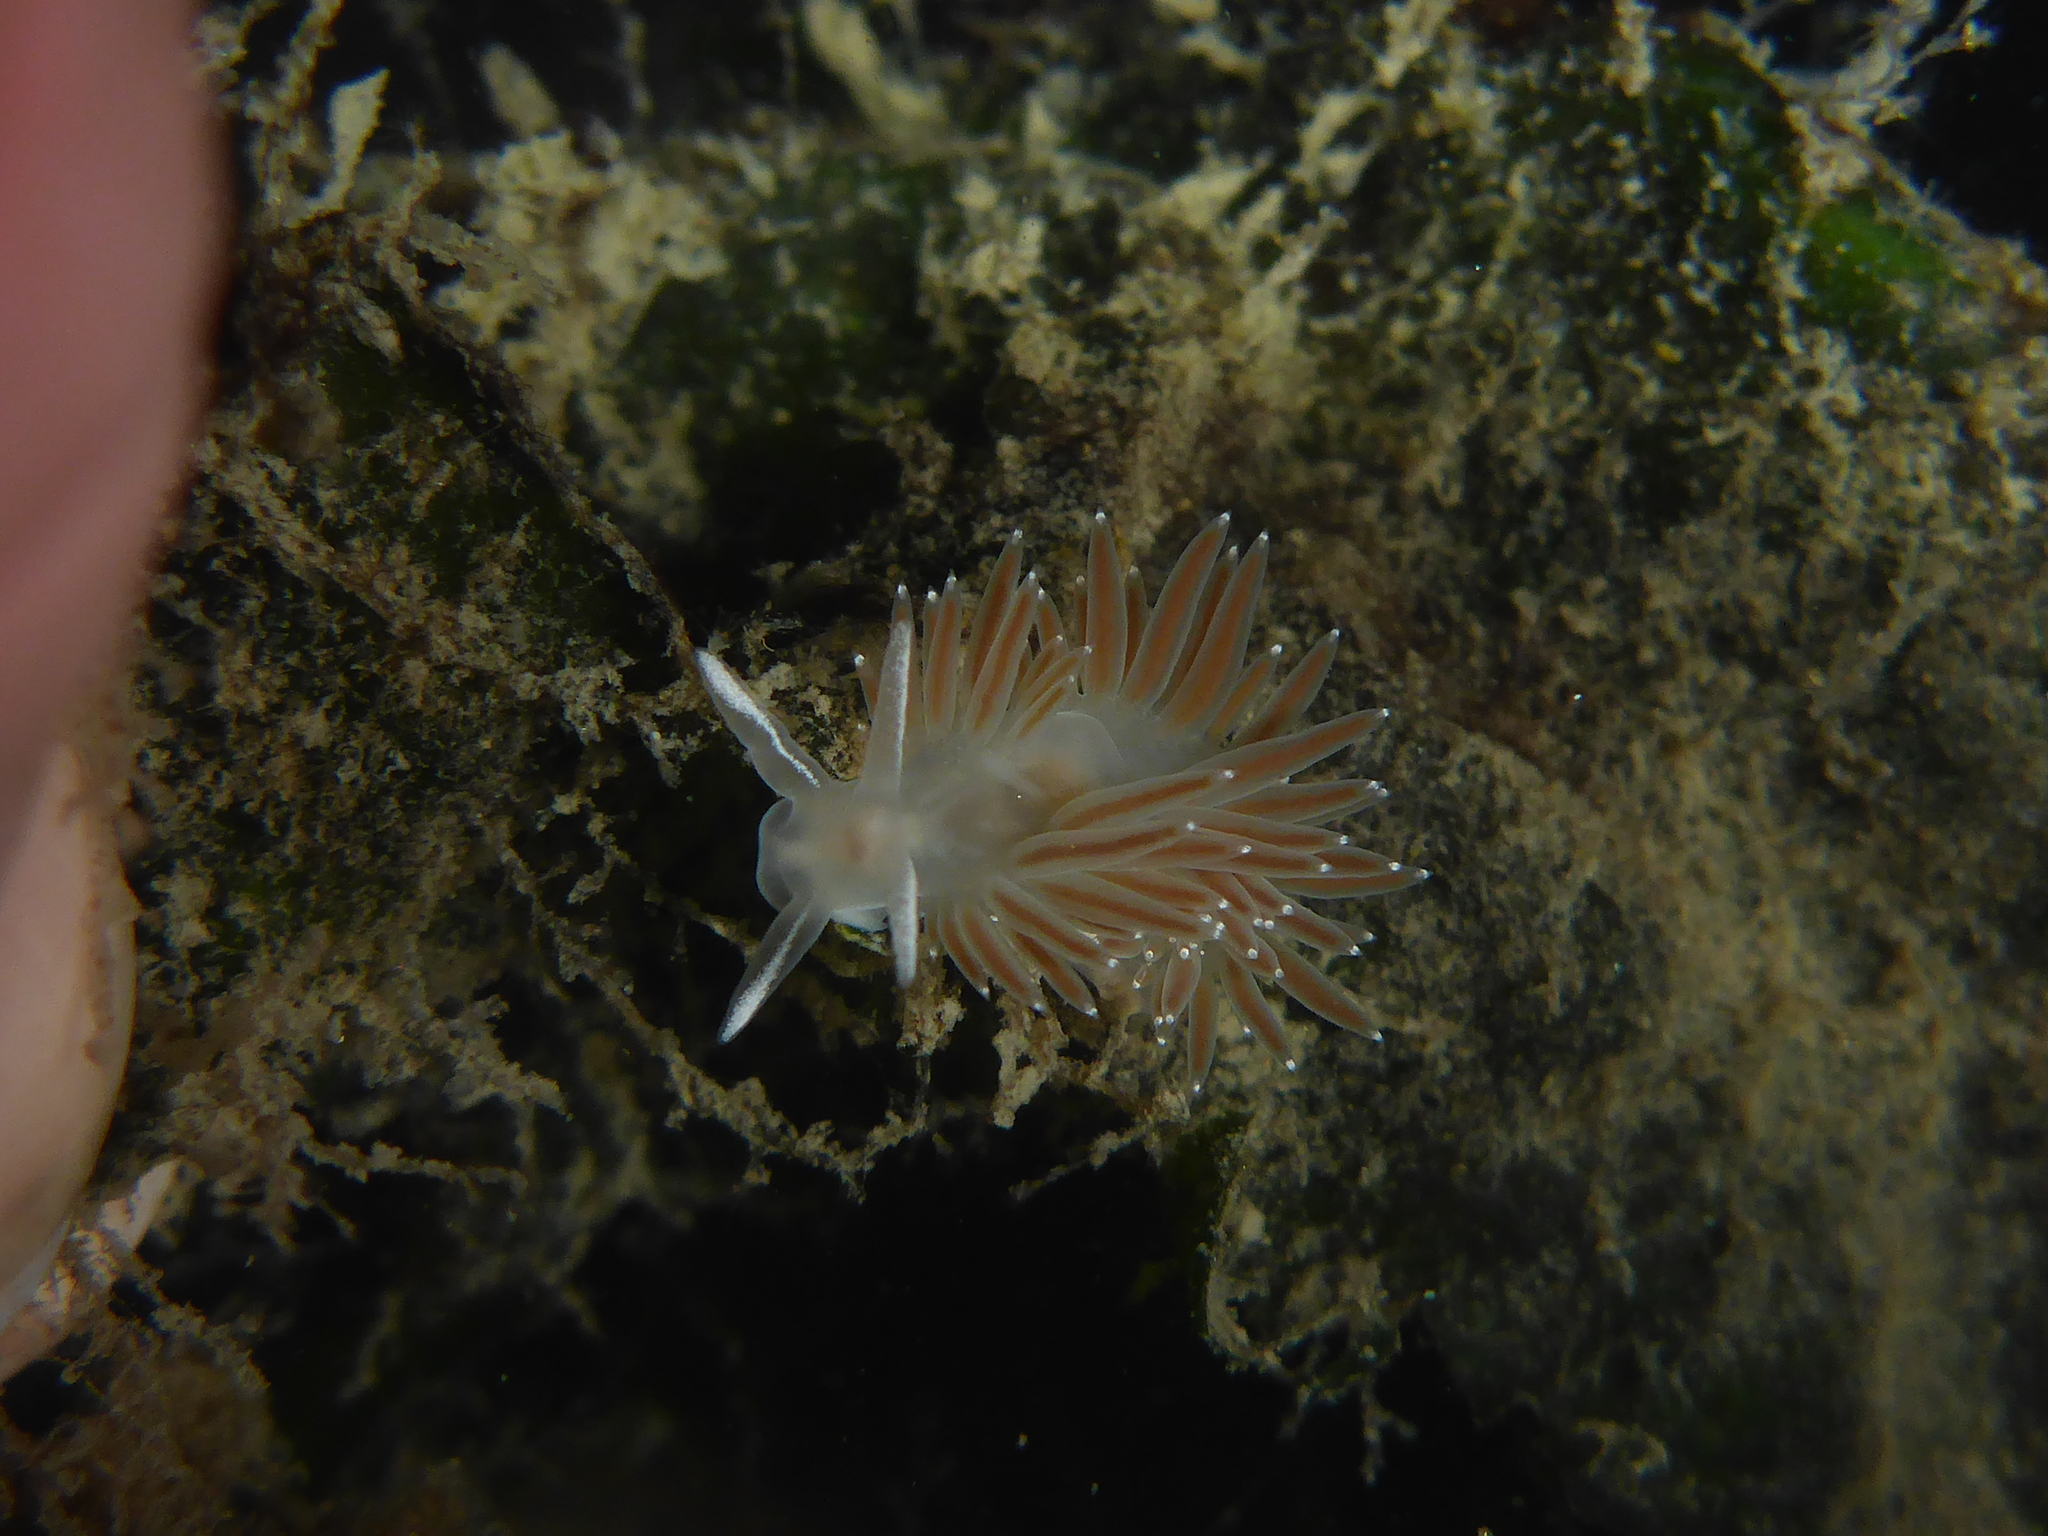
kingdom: Animalia
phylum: Mollusca
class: Gastropoda
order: Nudibranchia
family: Coryphellidae
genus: Coryphella
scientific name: Coryphella verrucosa
